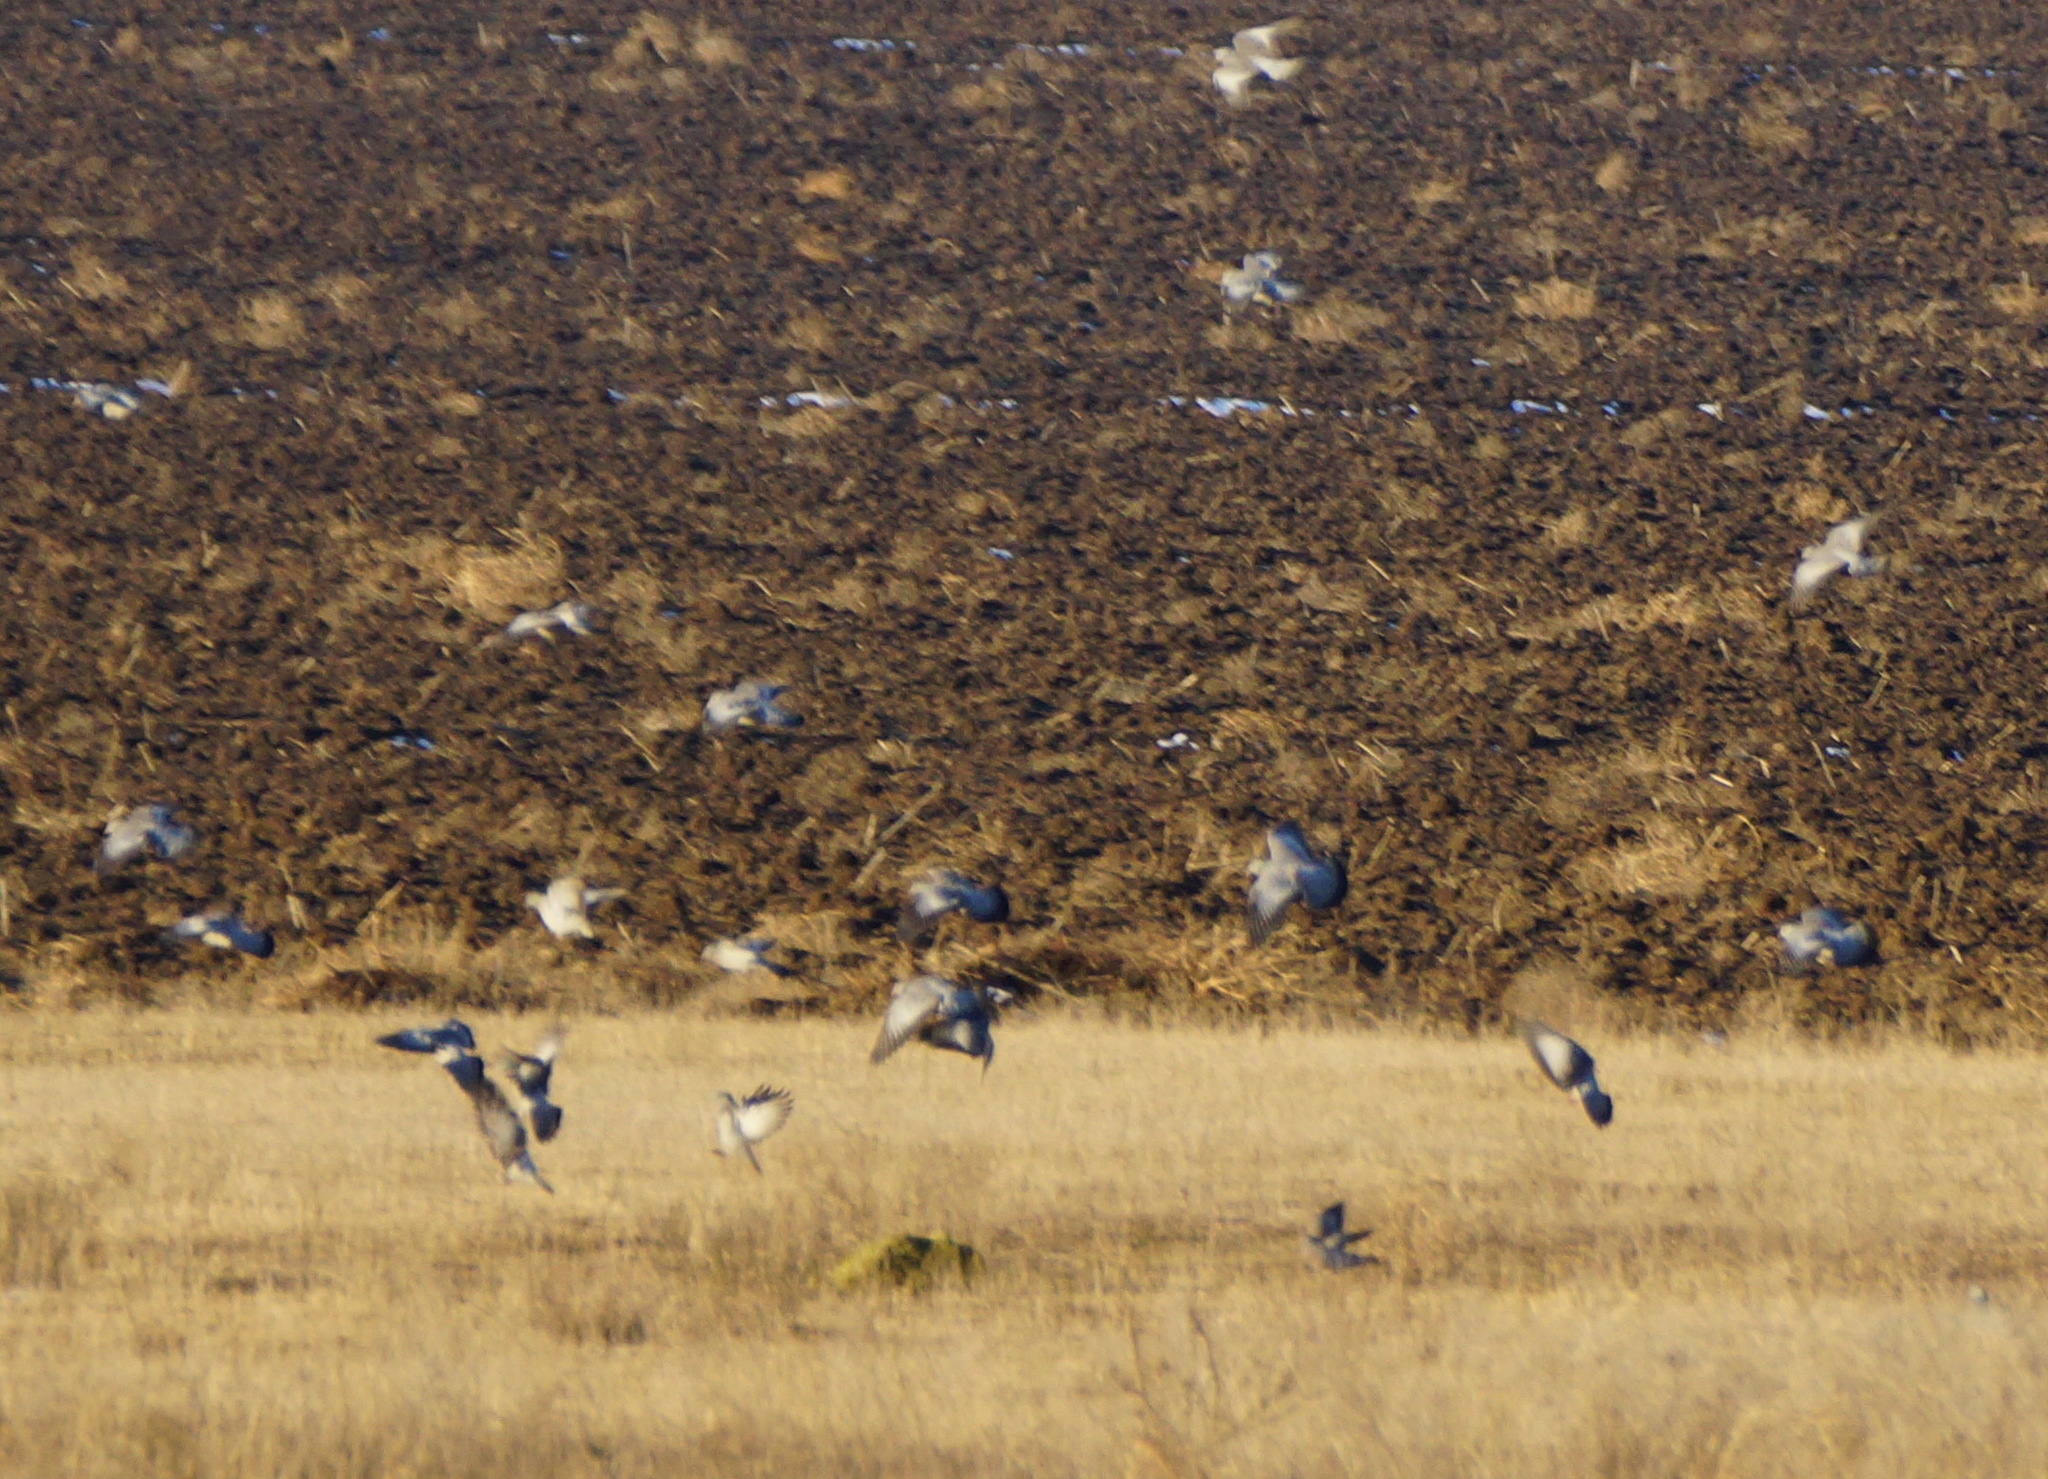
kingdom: Animalia
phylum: Chordata
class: Aves
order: Columbiformes
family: Columbidae
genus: Columba
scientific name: Columba oenas
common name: Stock dove
